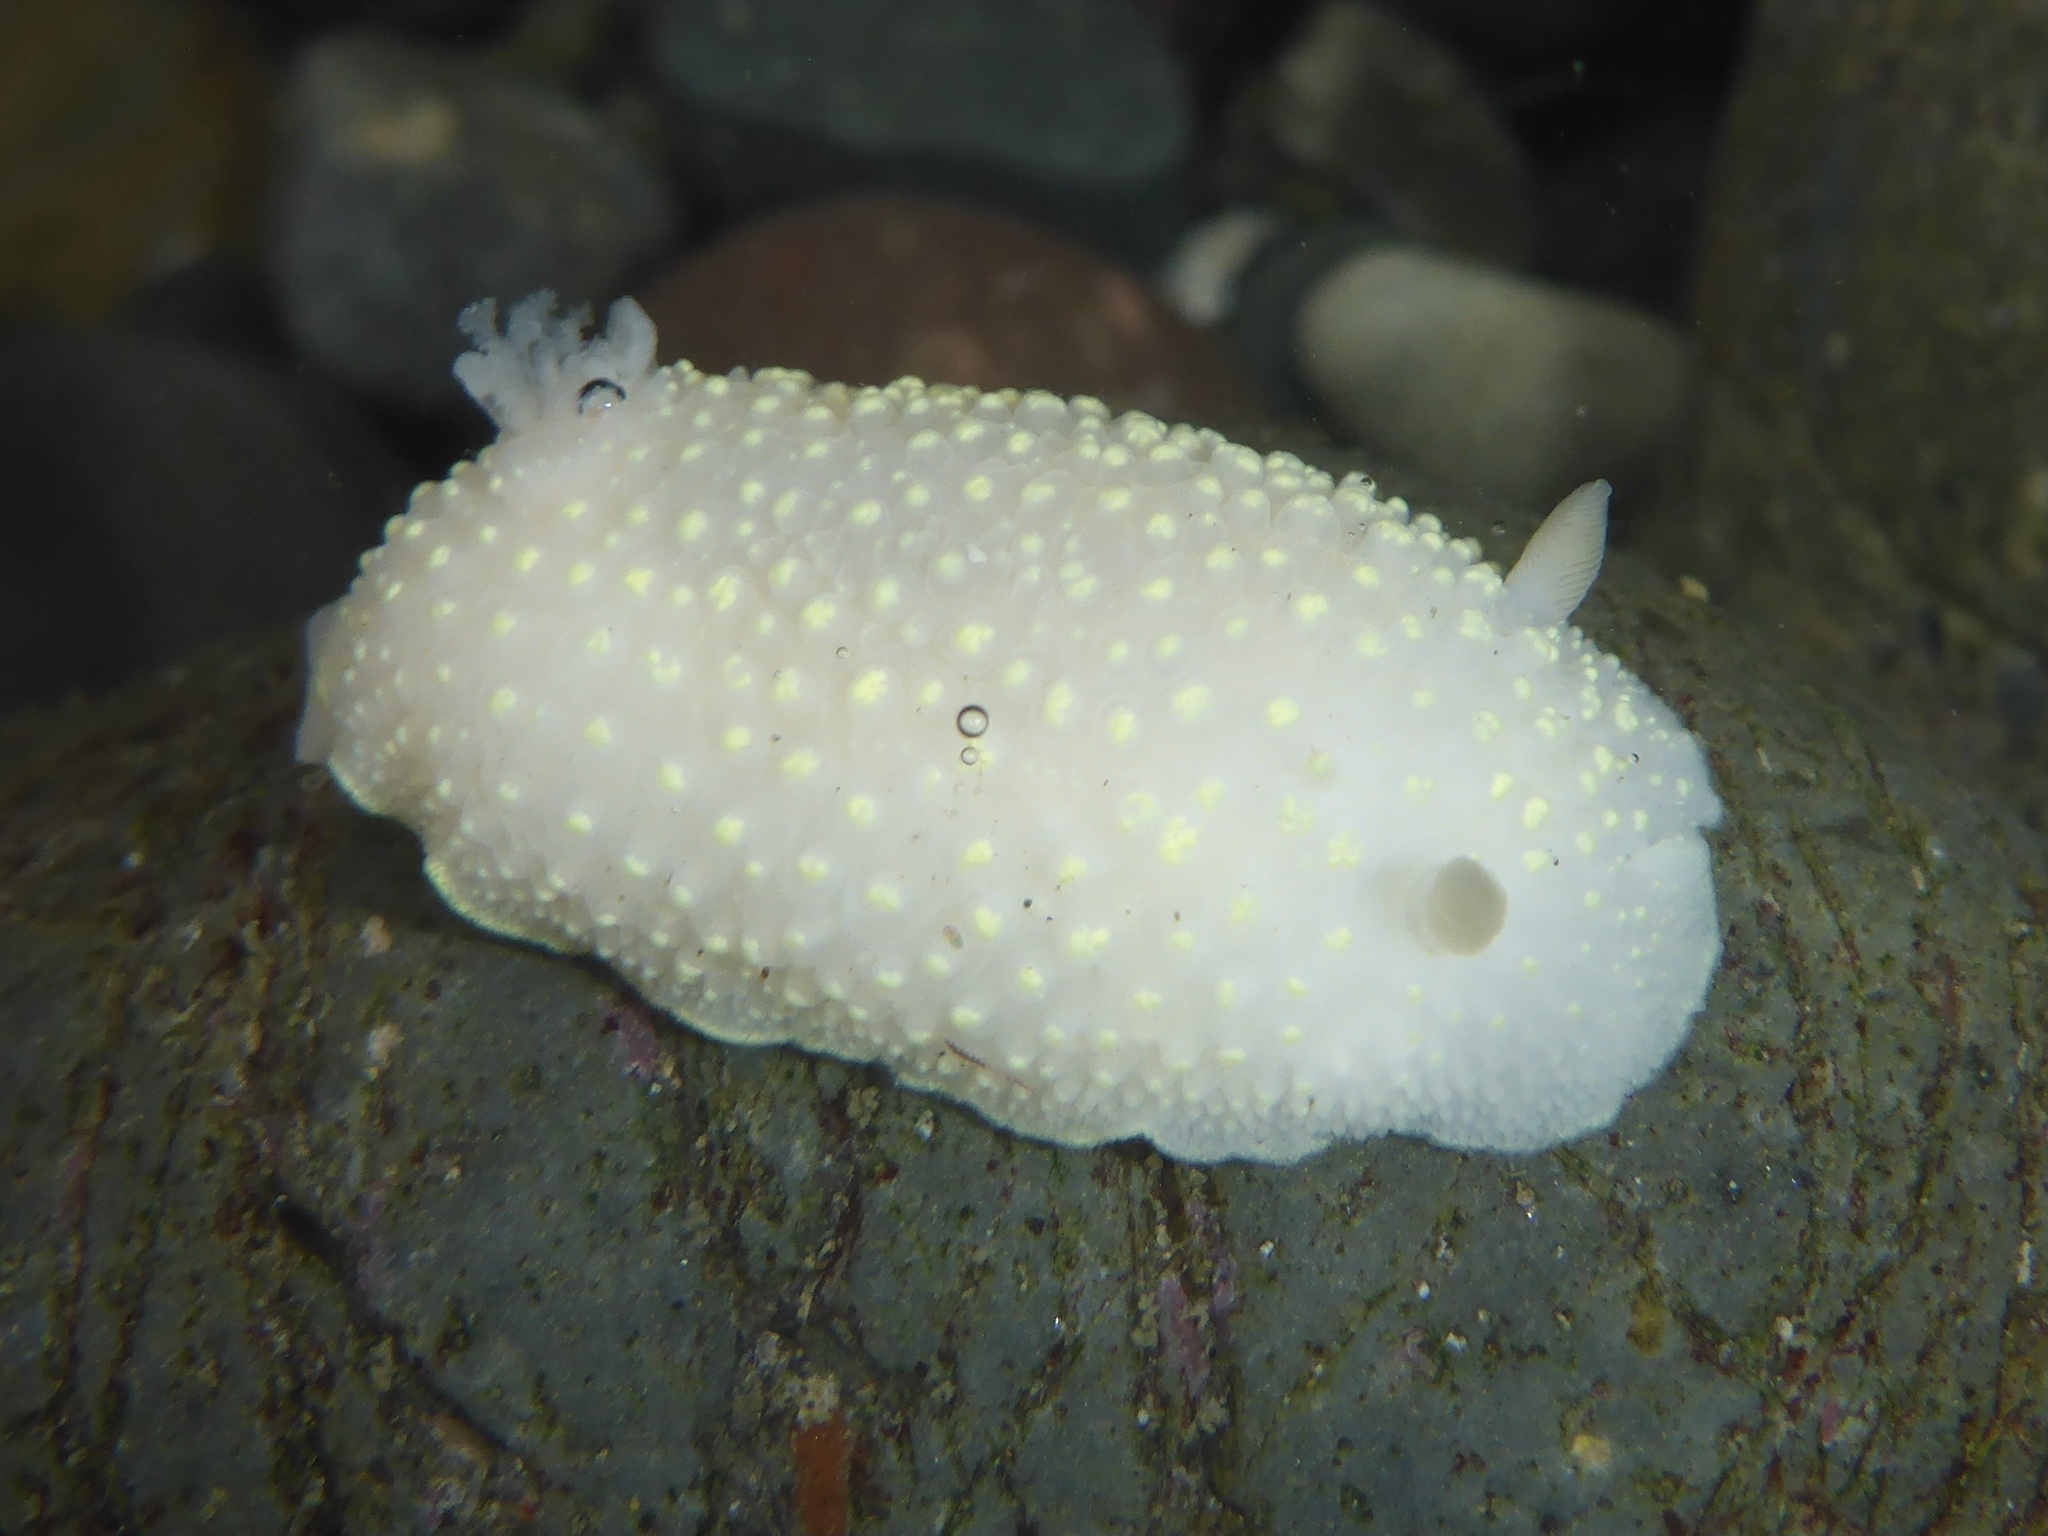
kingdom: Animalia
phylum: Mollusca
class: Gastropoda
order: Nudibranchia
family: Cadlinidae
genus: Cadlina
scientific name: Cadlina luteomarginata
